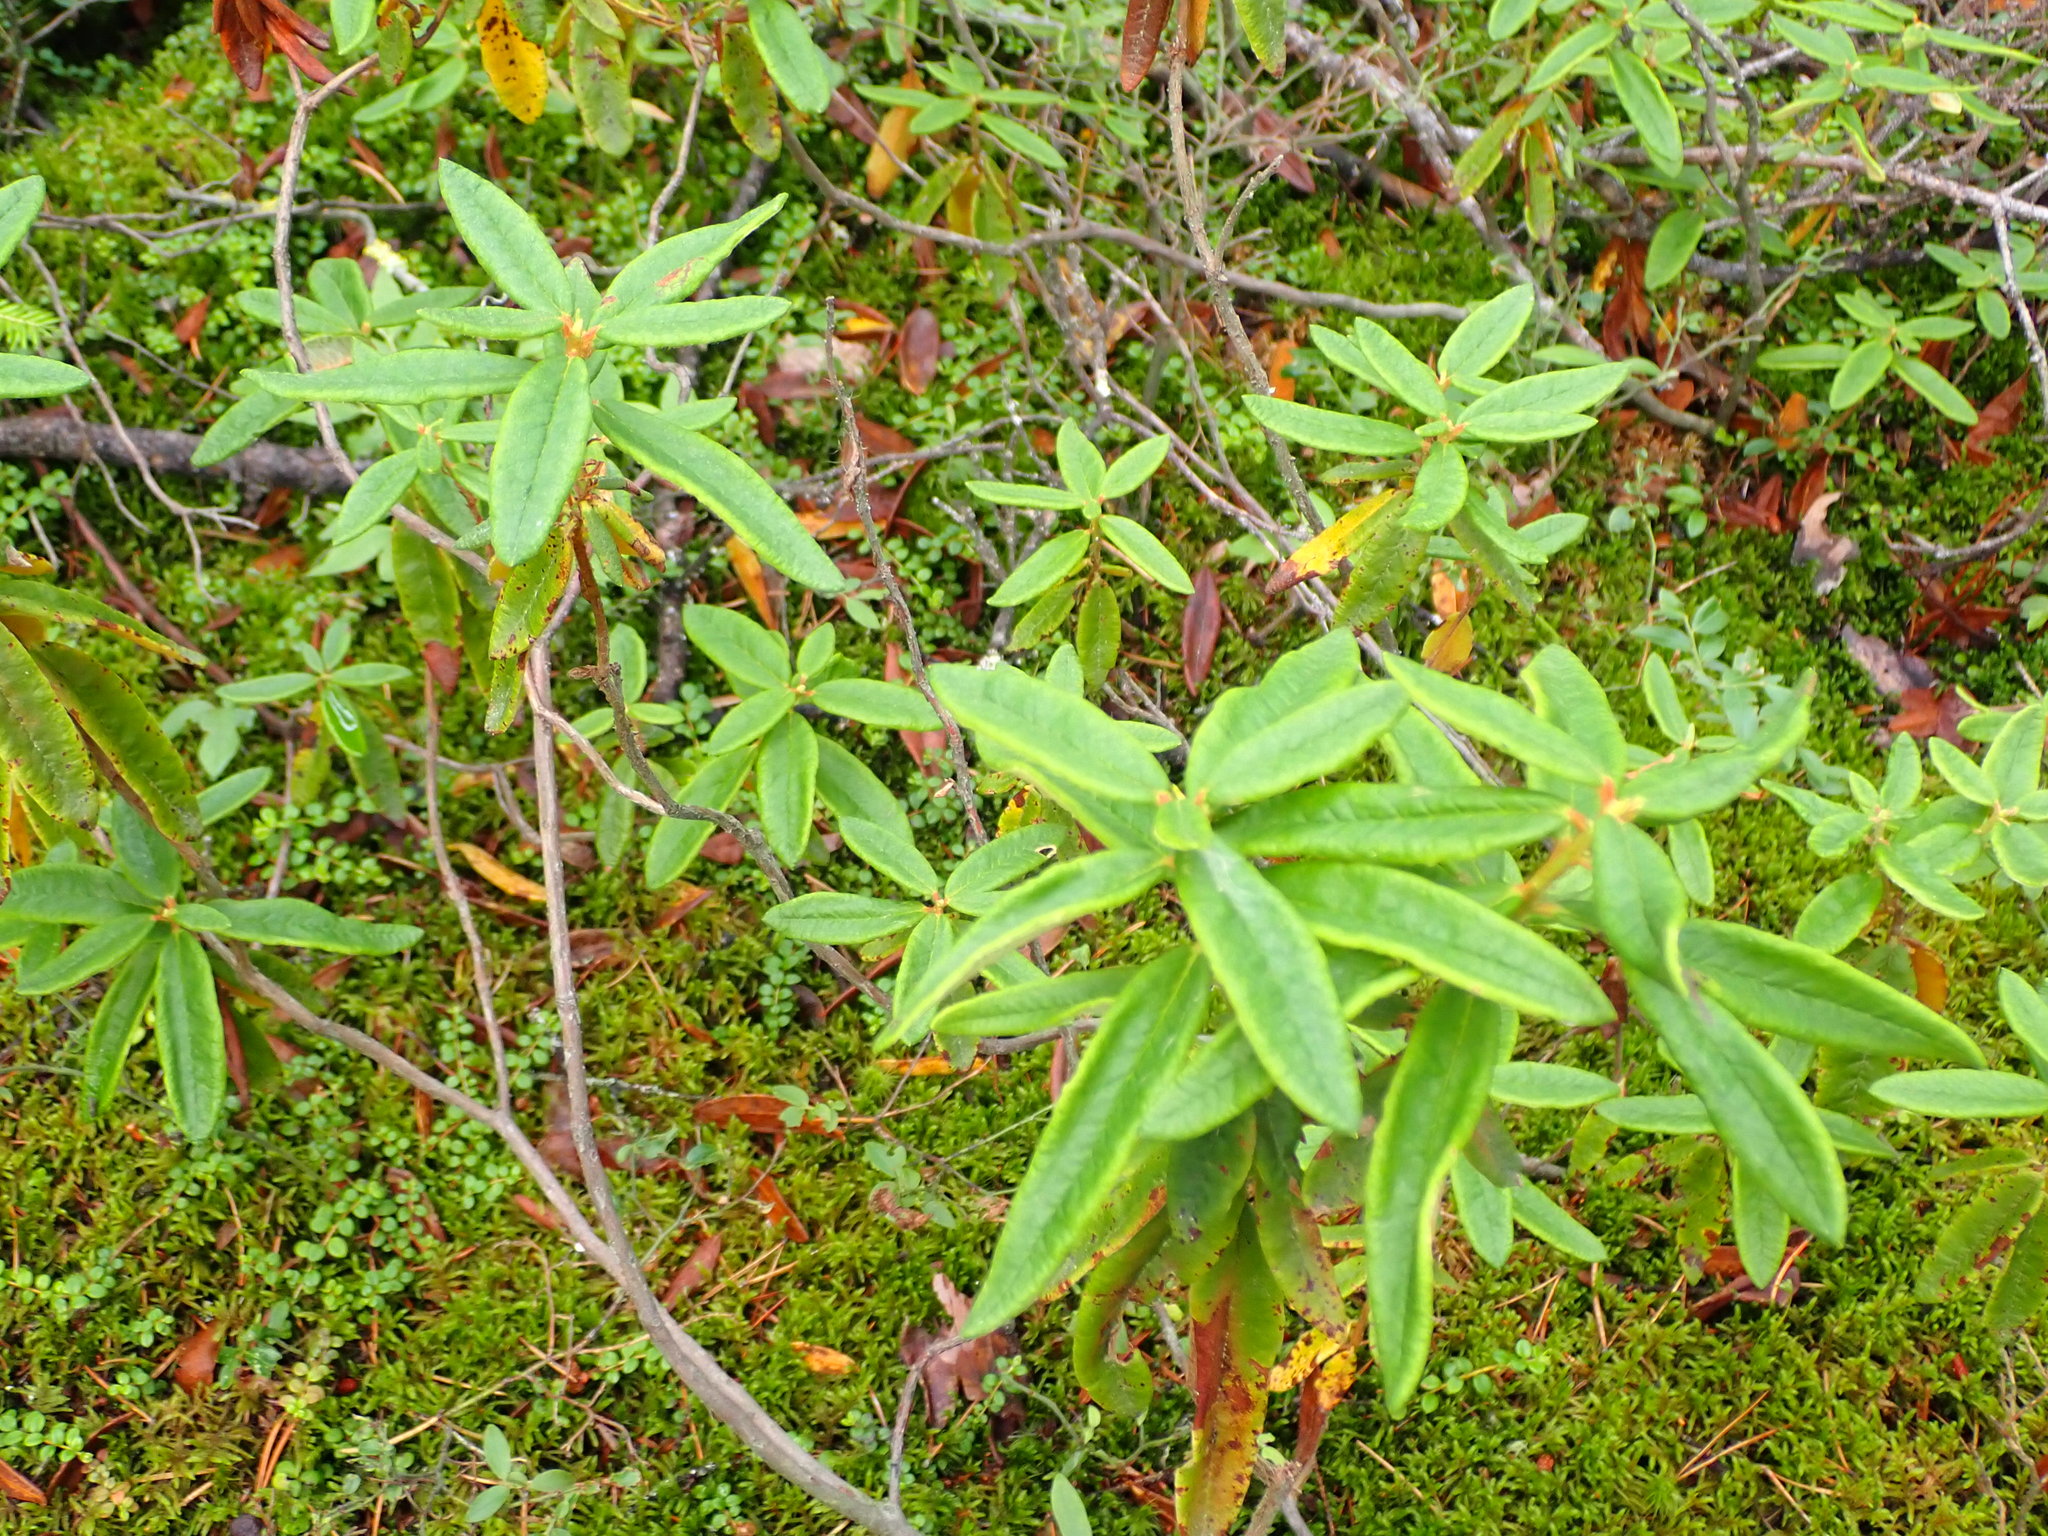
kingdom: Plantae
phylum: Tracheophyta
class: Magnoliopsida
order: Ericales
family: Ericaceae
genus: Rhododendron
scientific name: Rhododendron groenlandicum
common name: Bog labrador tea
